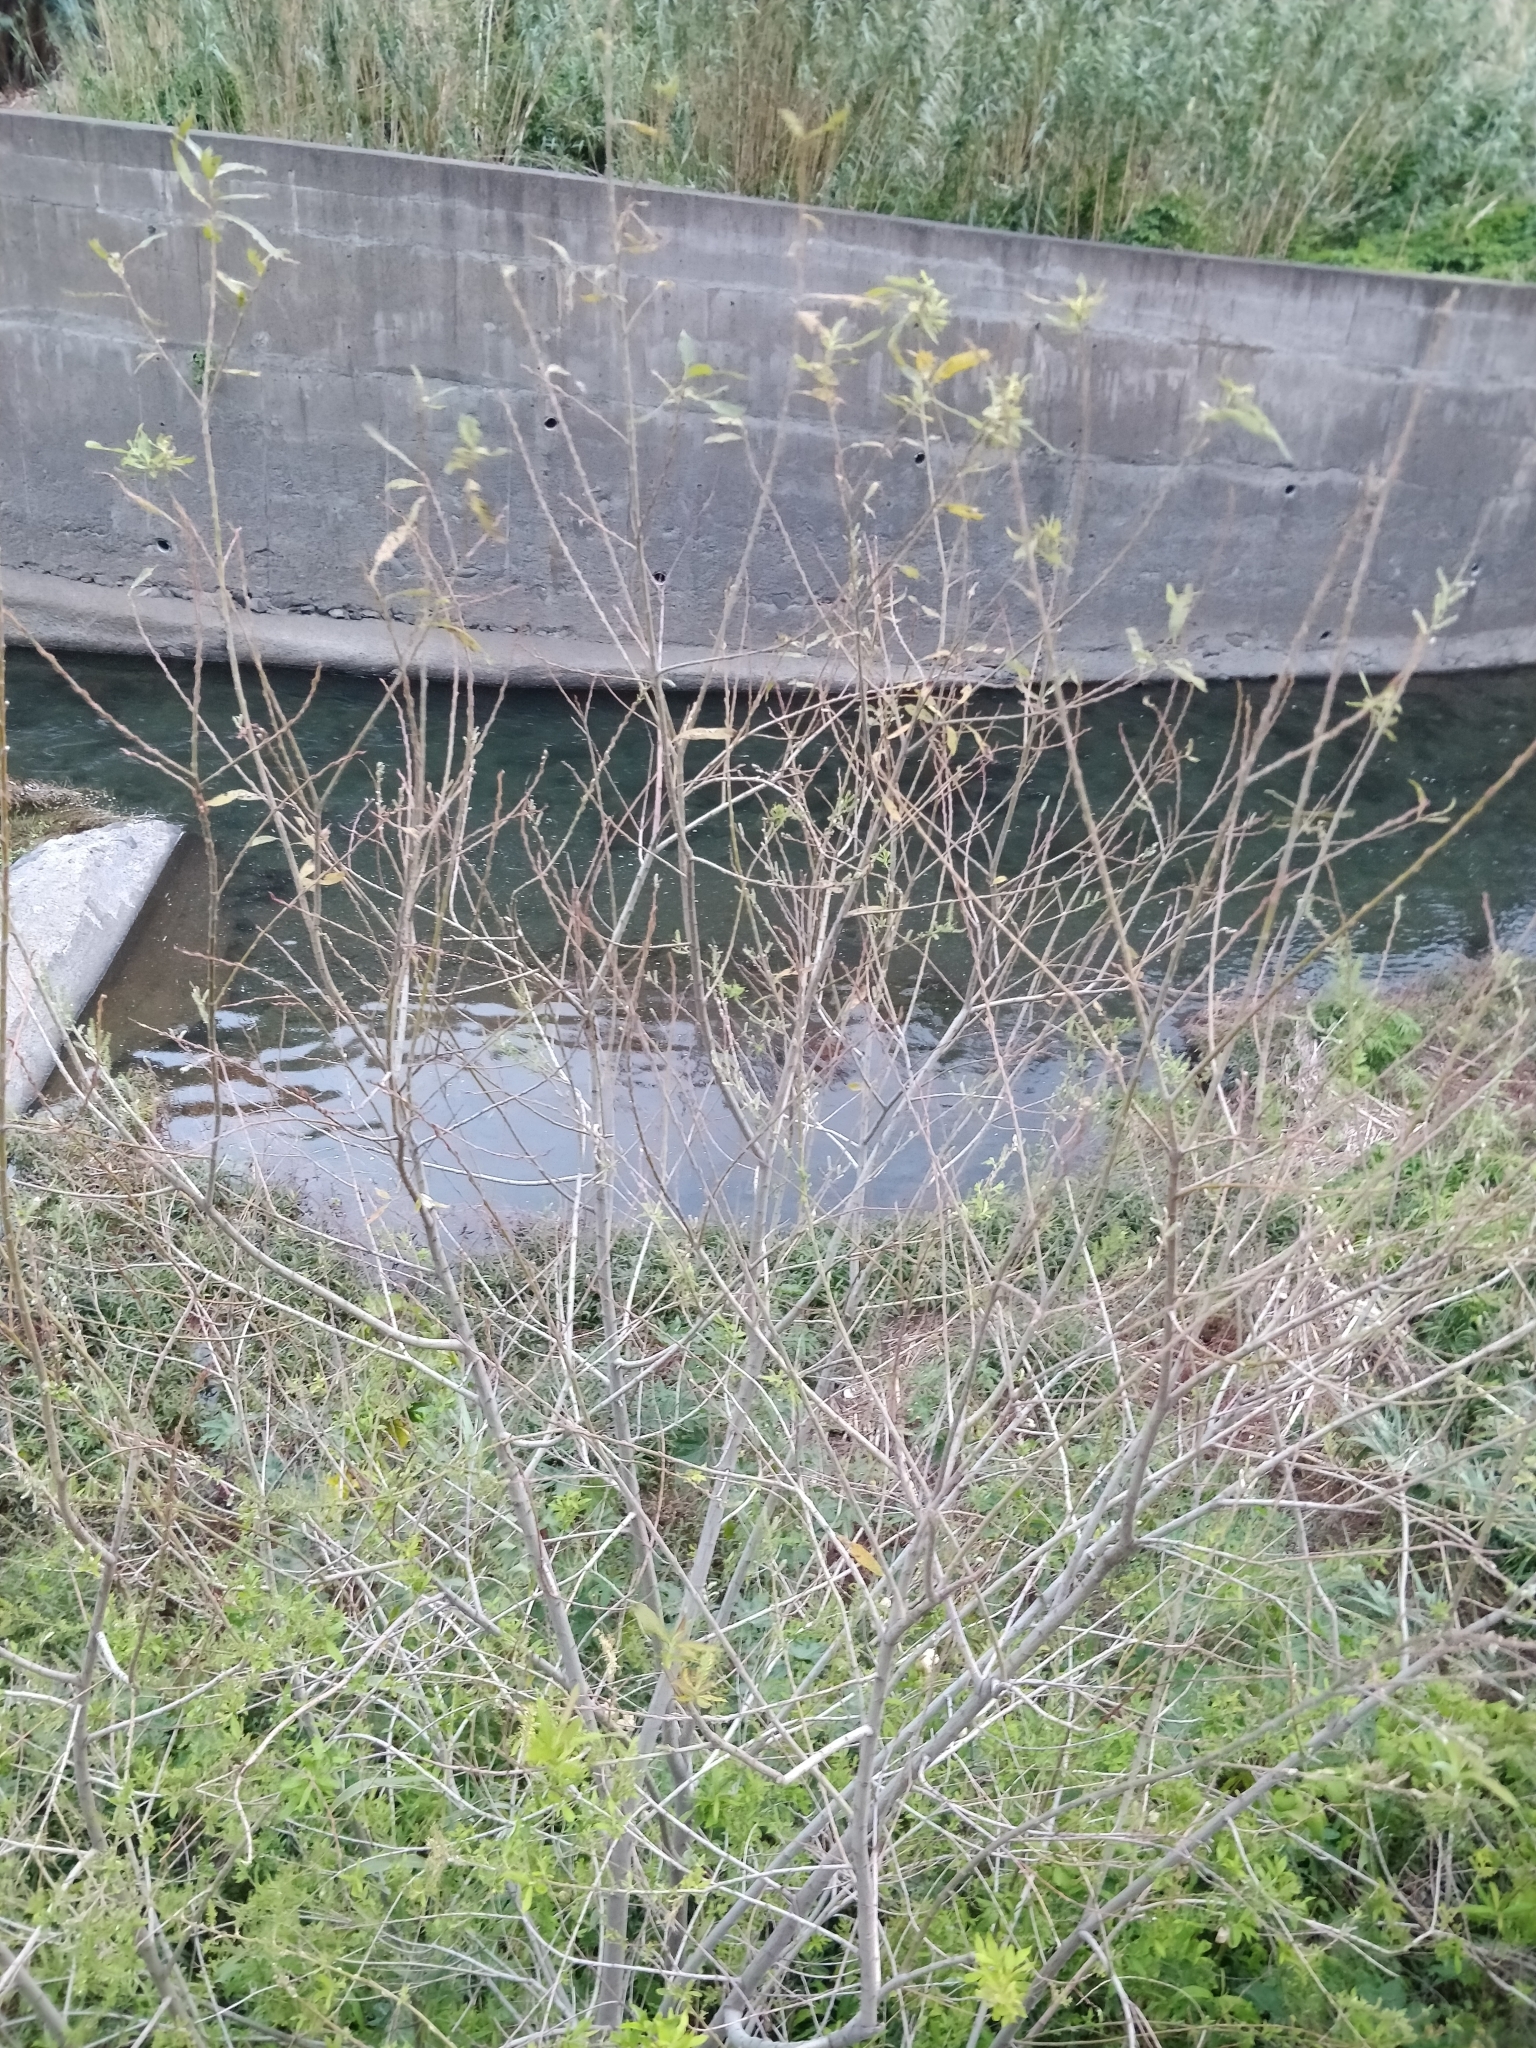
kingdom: Plantae
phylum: Tracheophyta
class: Magnoliopsida
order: Malpighiales
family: Salicaceae
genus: Salix
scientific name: Salix canariensis
